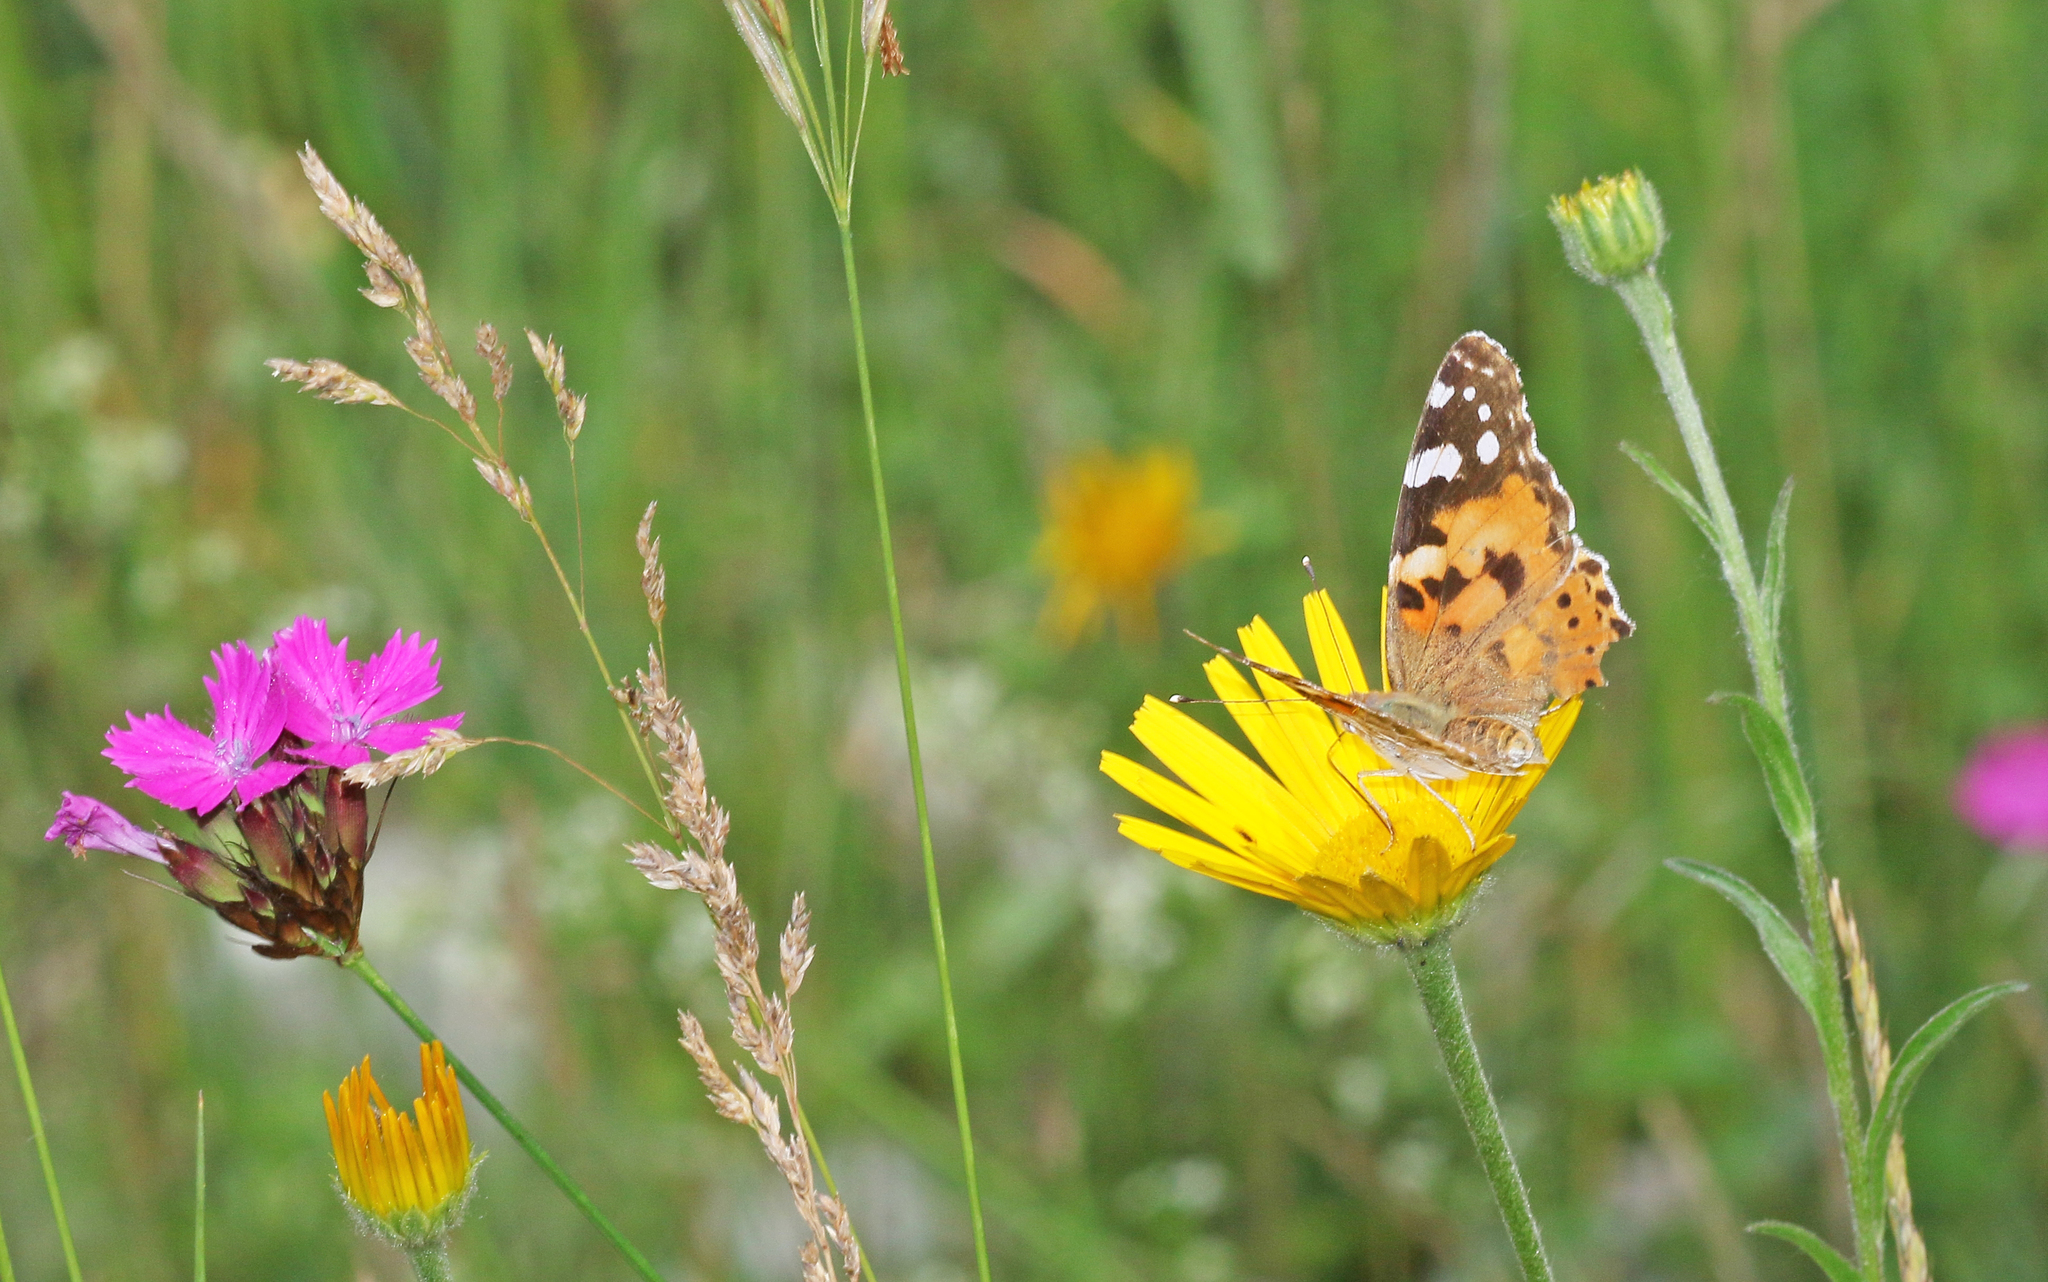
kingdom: Animalia
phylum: Arthropoda
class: Insecta
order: Lepidoptera
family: Nymphalidae
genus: Vanessa
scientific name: Vanessa cardui
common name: Painted lady
